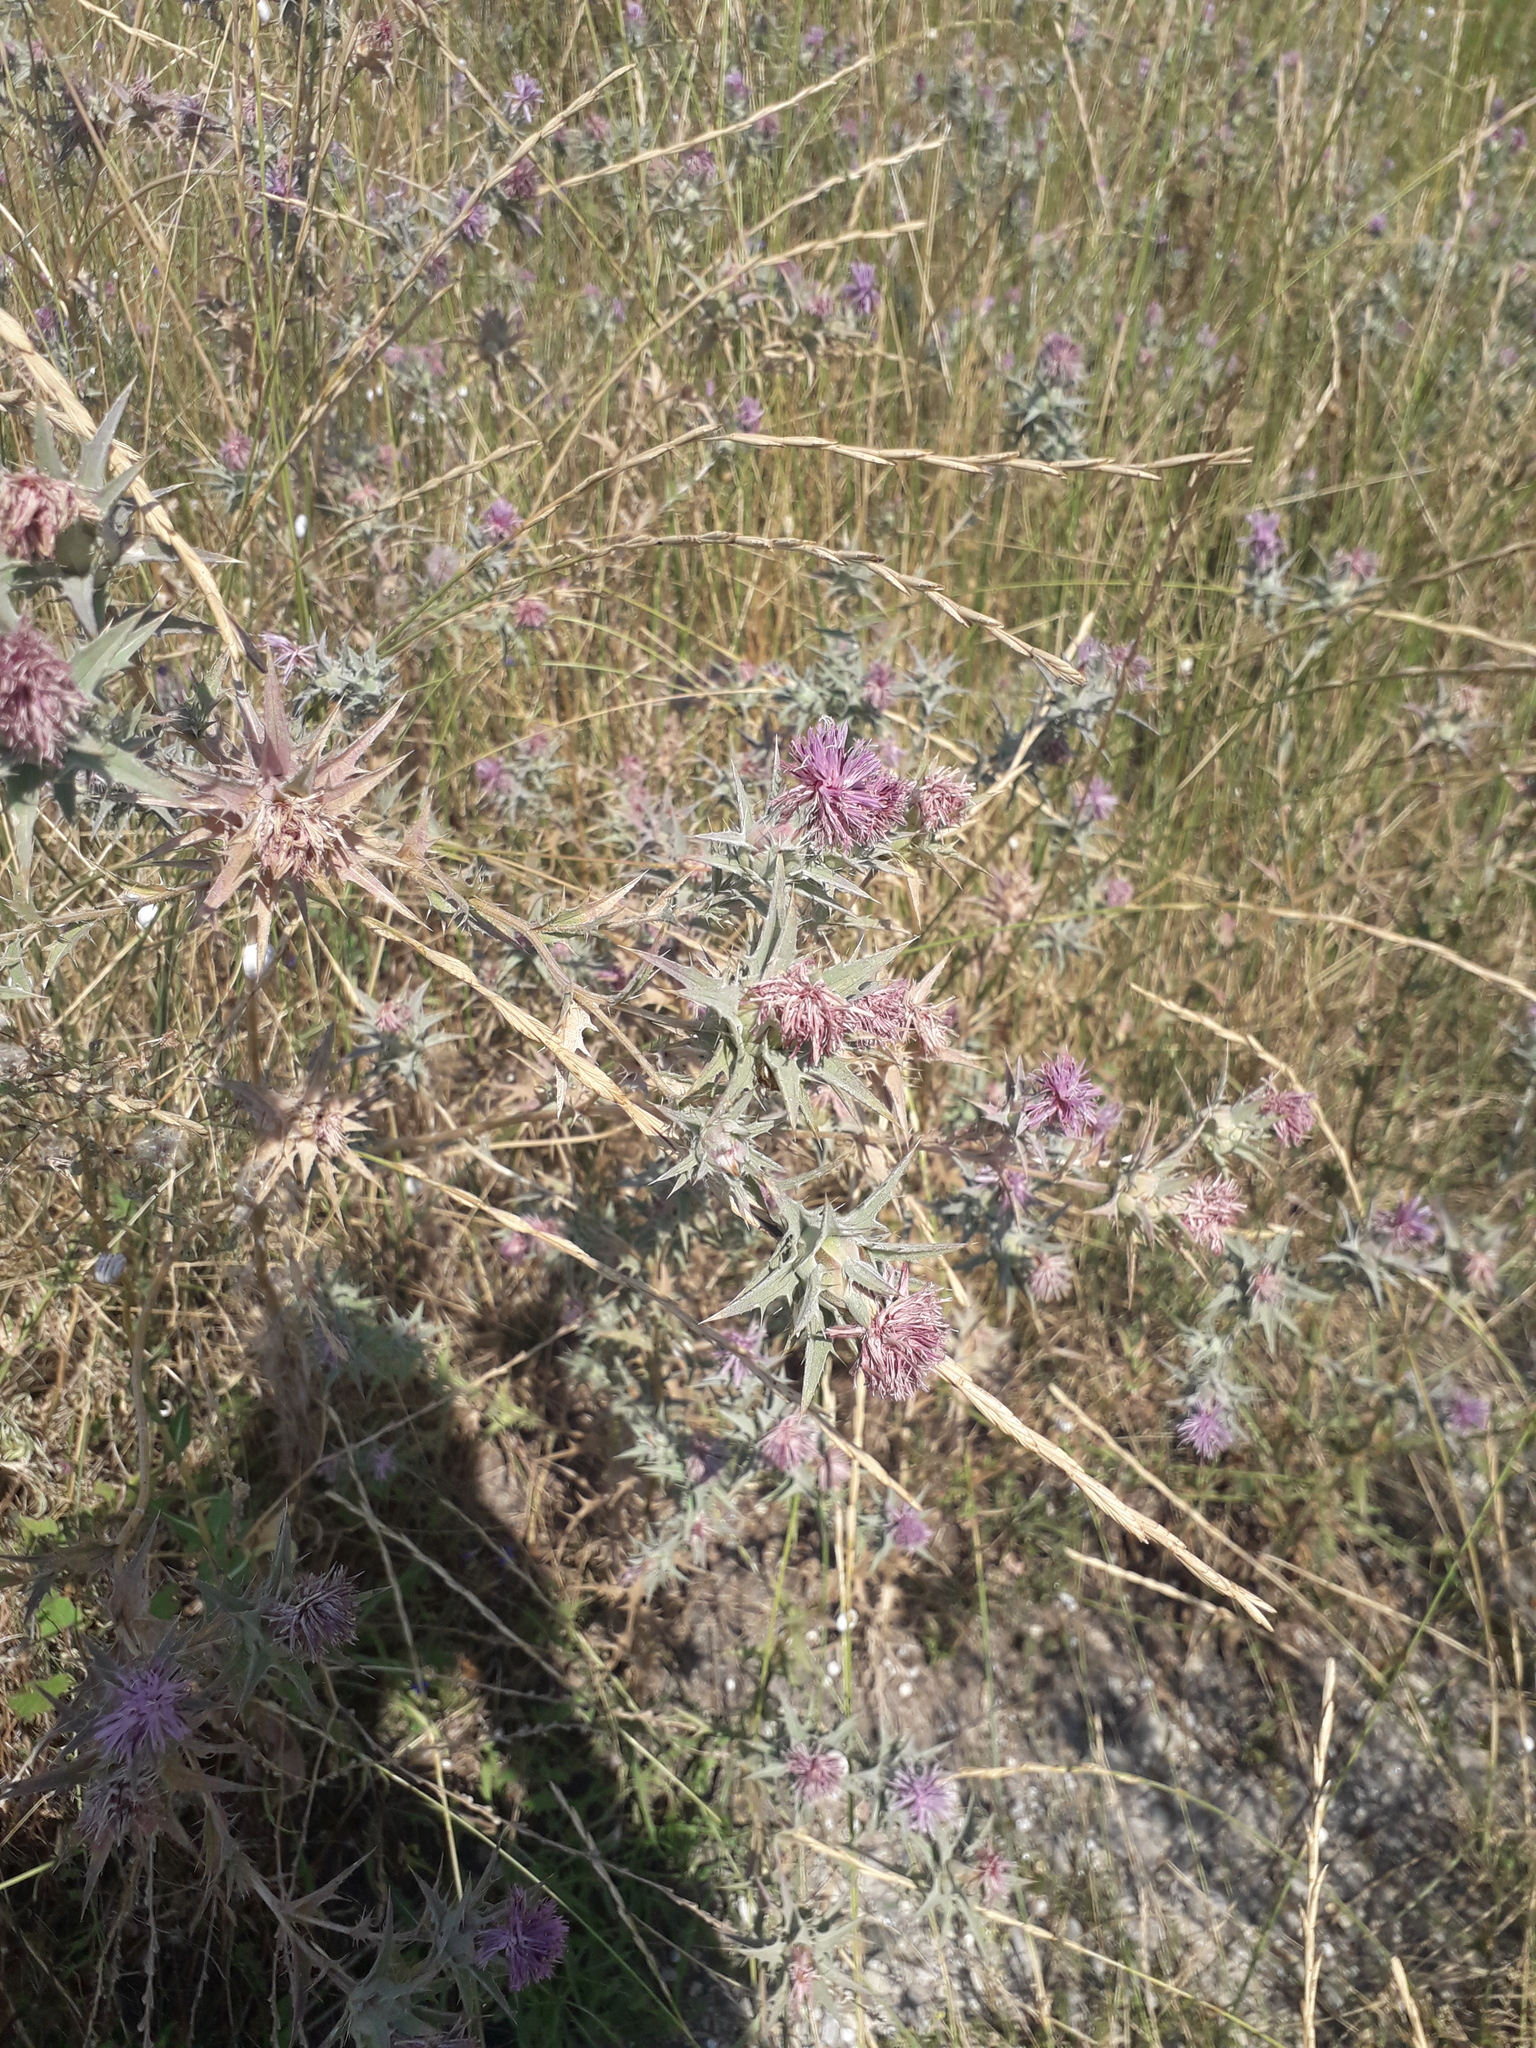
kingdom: Plantae
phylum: Tracheophyta
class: Magnoliopsida
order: Asterales
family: Asteraceae
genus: Carthamus
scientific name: Carthamus glaucus
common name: Mediterranean thistle
